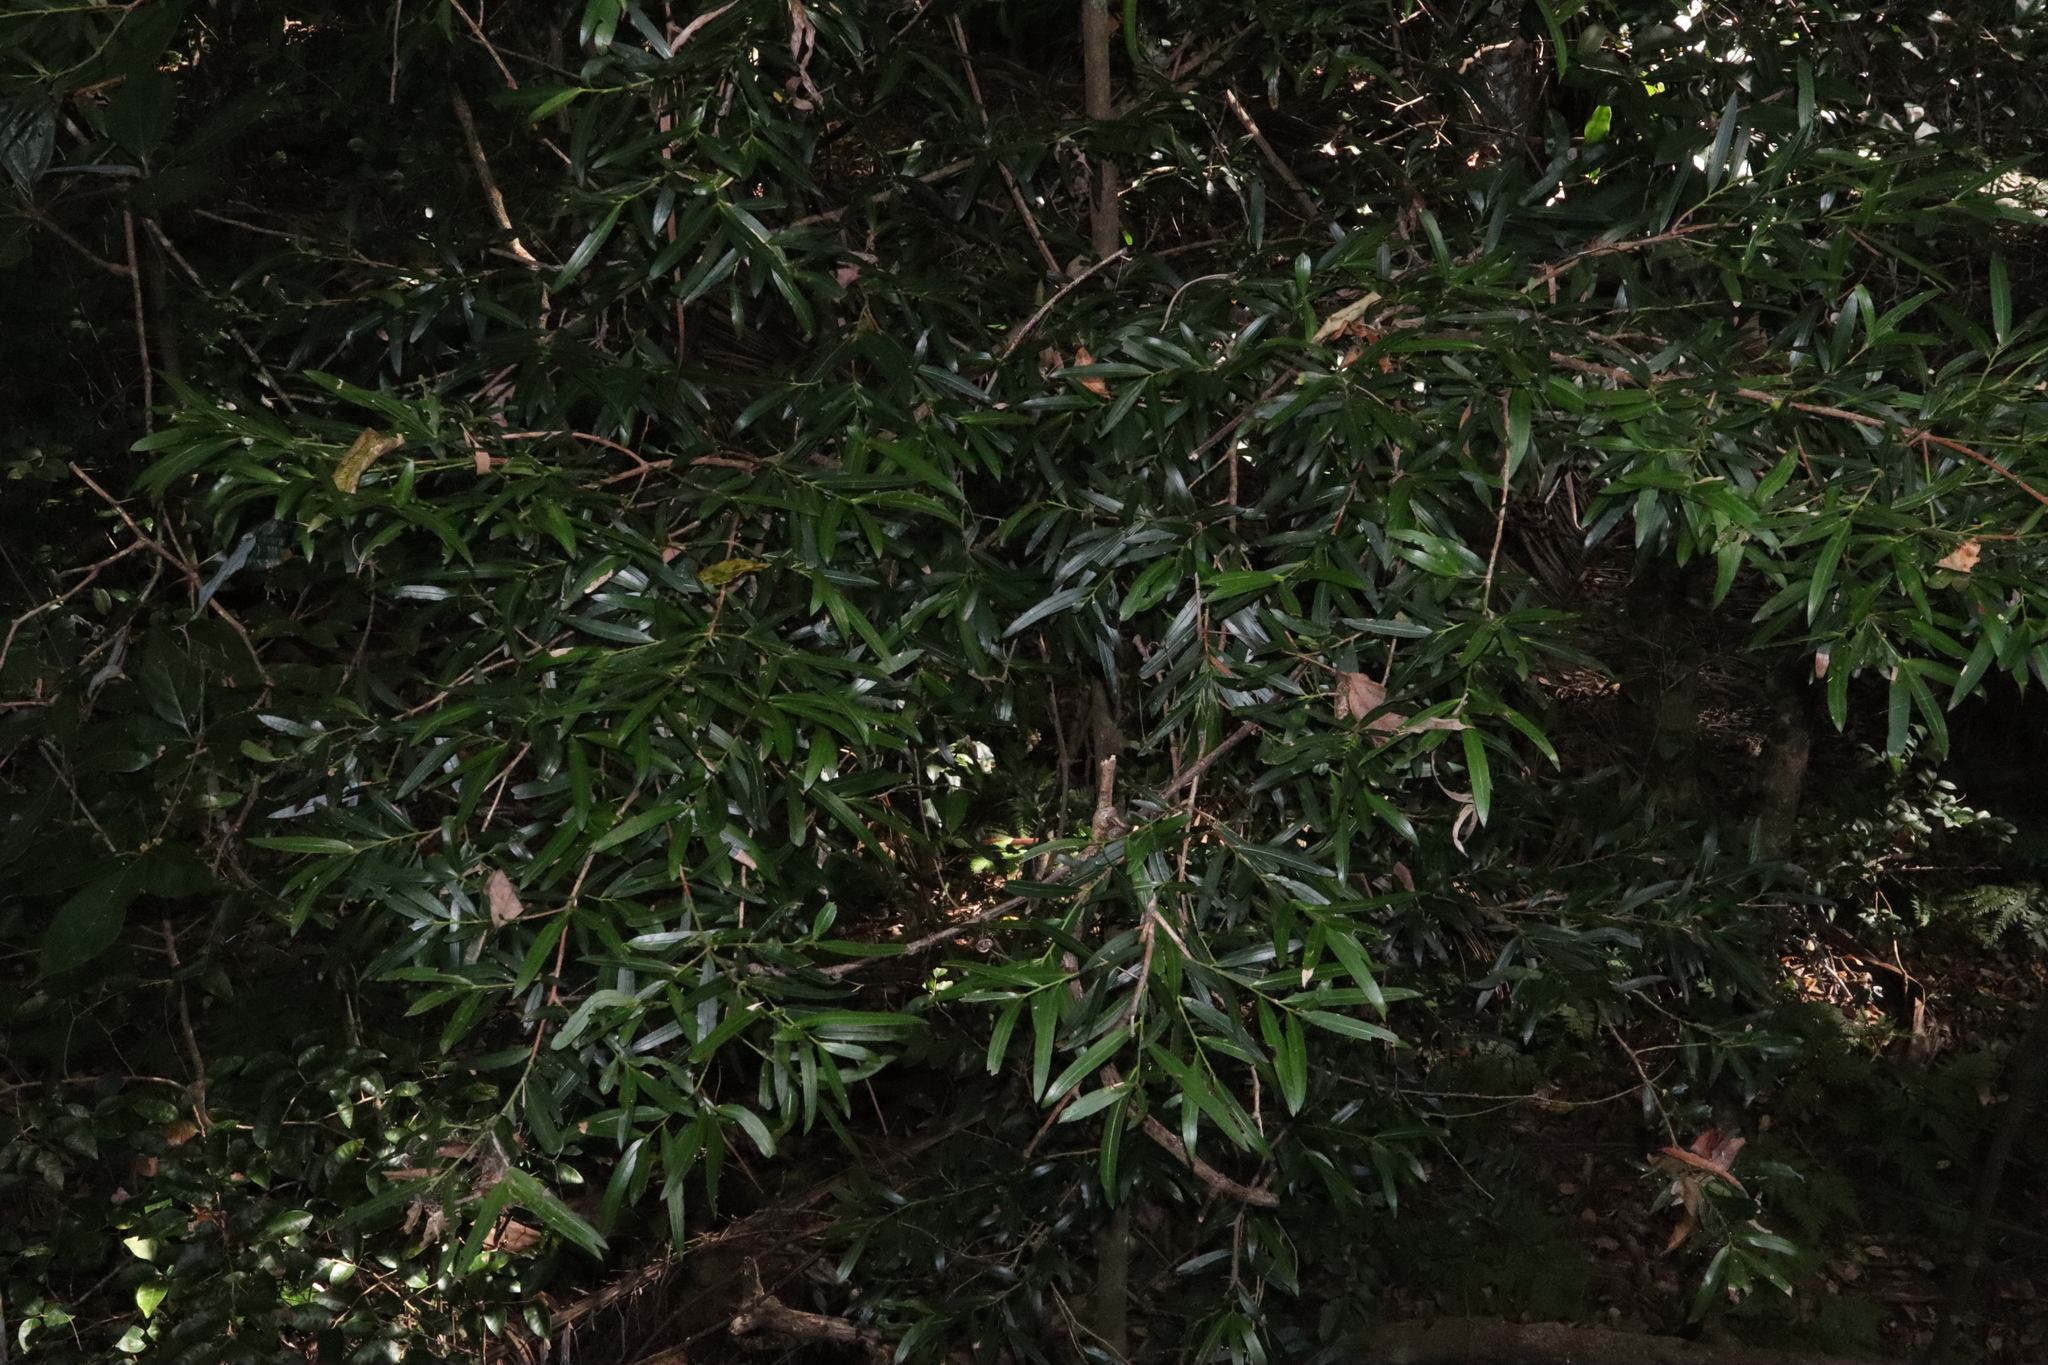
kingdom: Plantae
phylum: Tracheophyta
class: Pinopsida
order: Pinales
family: Podocarpaceae
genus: Podocarpus
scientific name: Podocarpus elatus
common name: Plum pine
